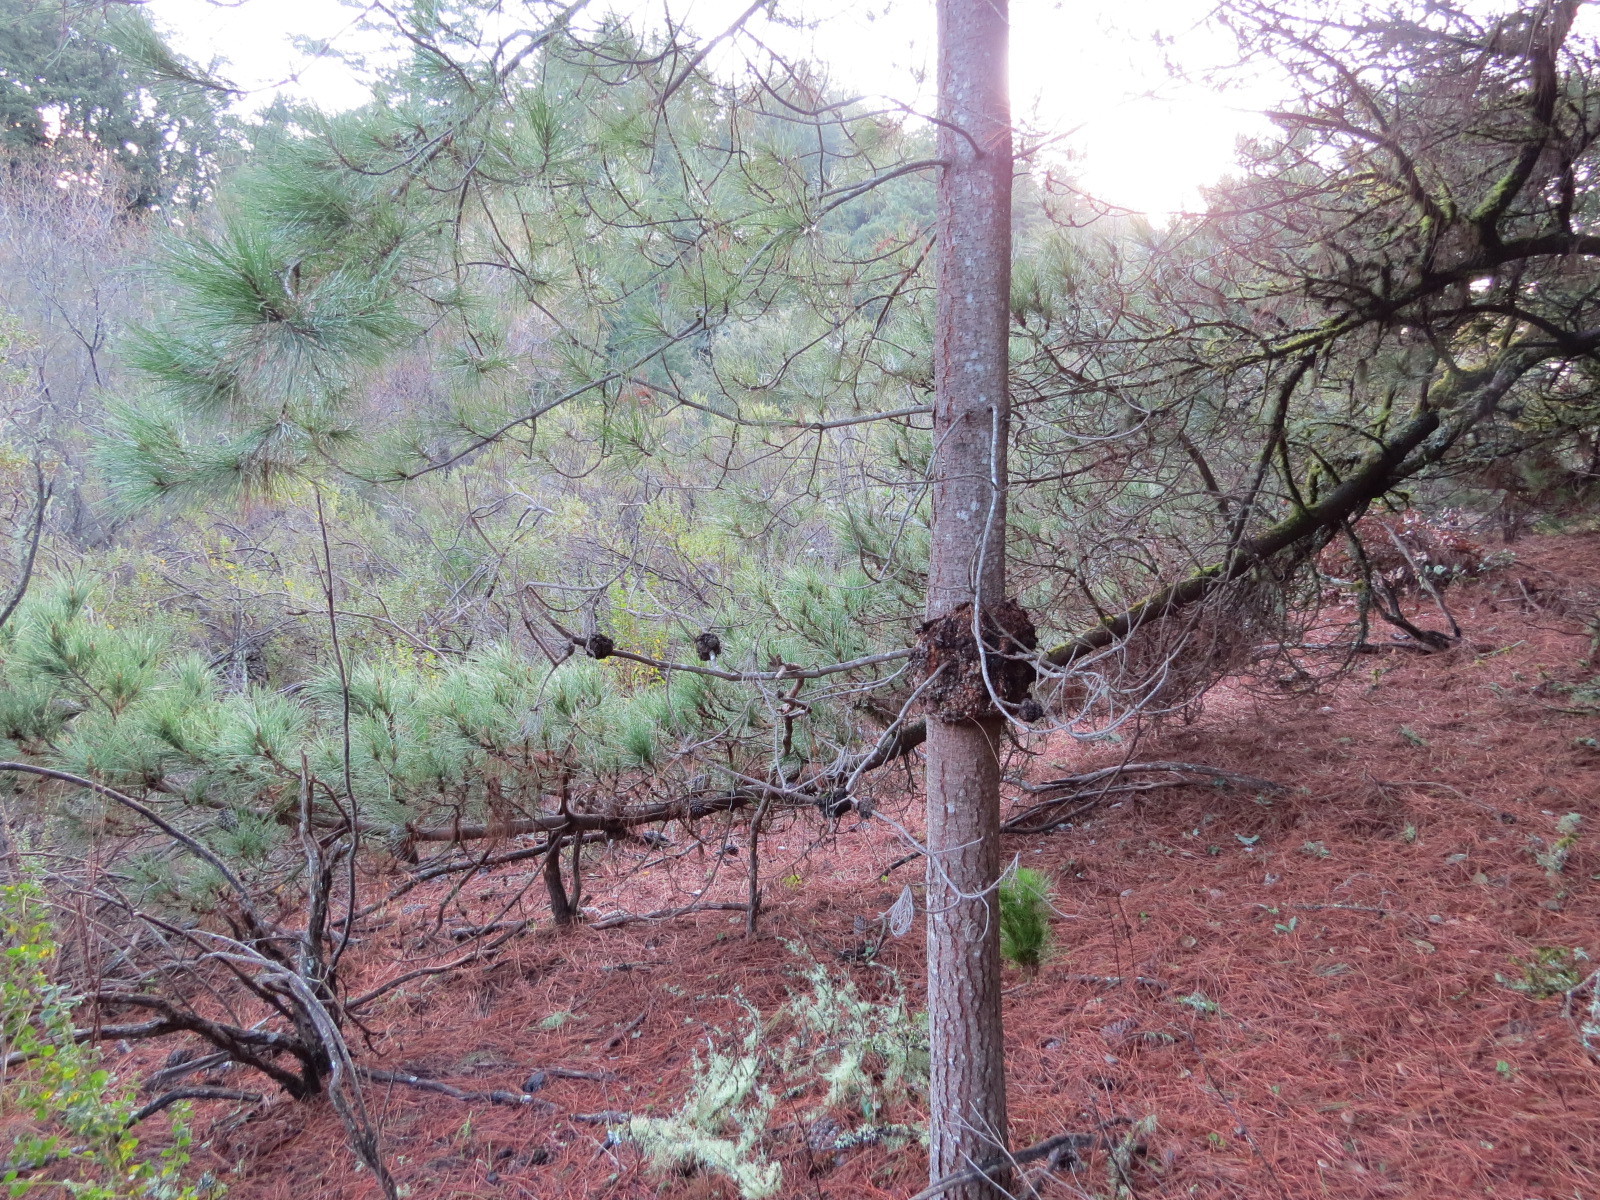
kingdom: Fungi
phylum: Basidiomycota
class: Pucciniomycetes
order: Pucciniales
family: Cronartiaceae
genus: Cronartium
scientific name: Cronartium harknessii
